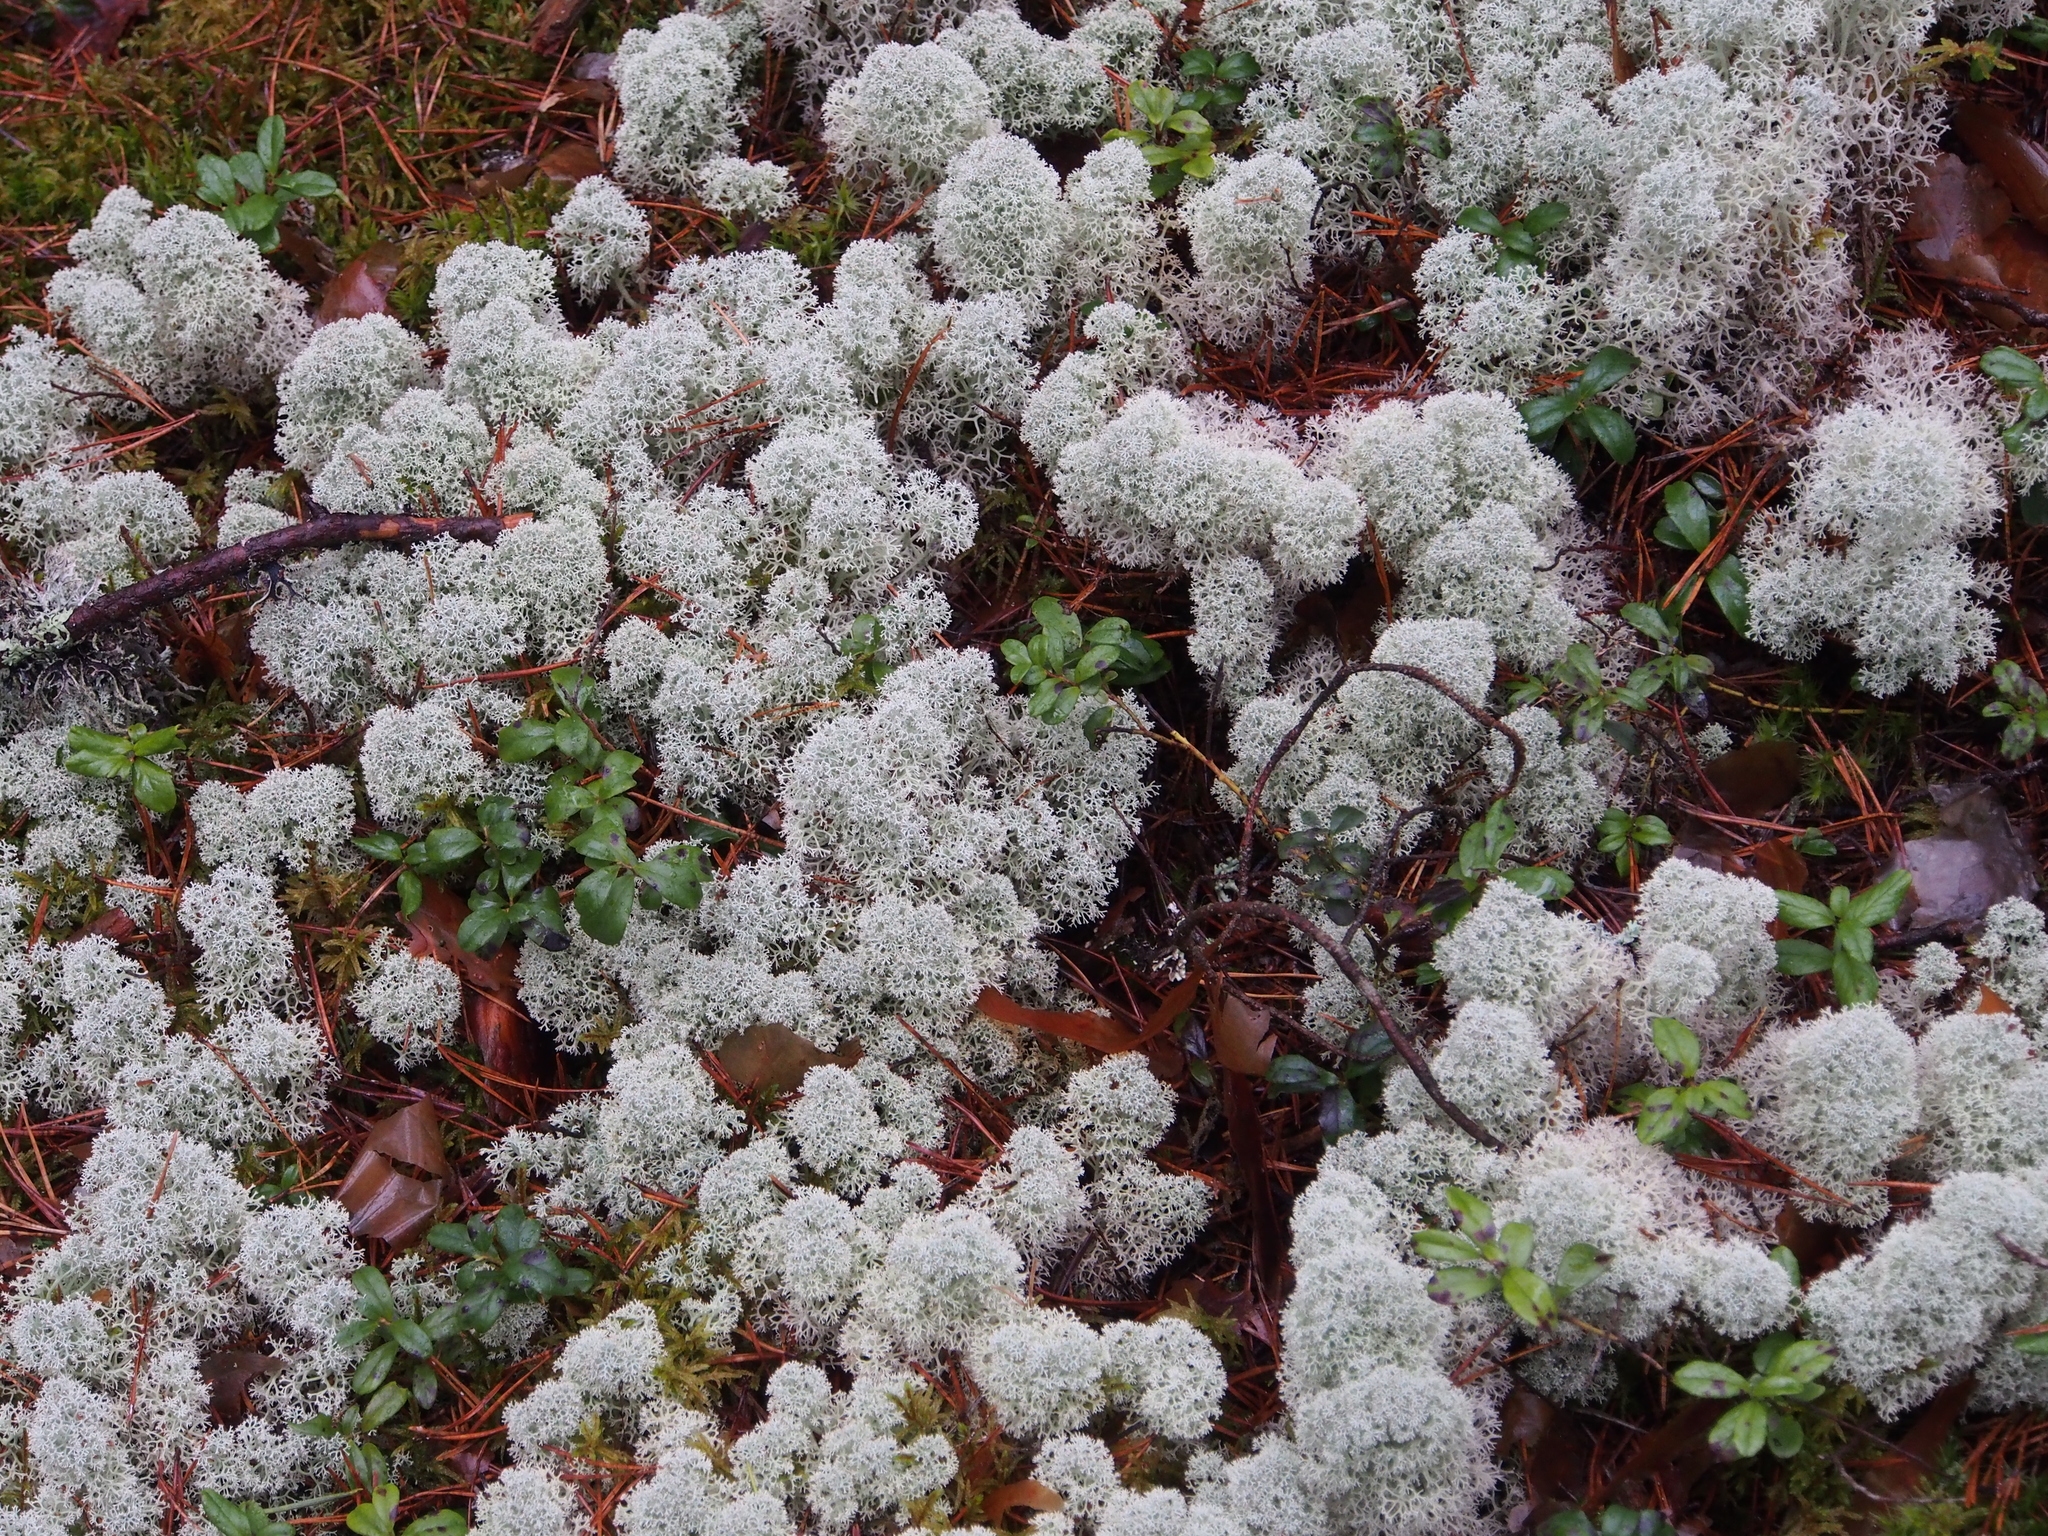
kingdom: Fungi
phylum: Ascomycota
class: Lecanoromycetes
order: Lecanorales
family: Cladoniaceae
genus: Cladonia
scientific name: Cladonia stellaris
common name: Star-tipped reindeer lichen
